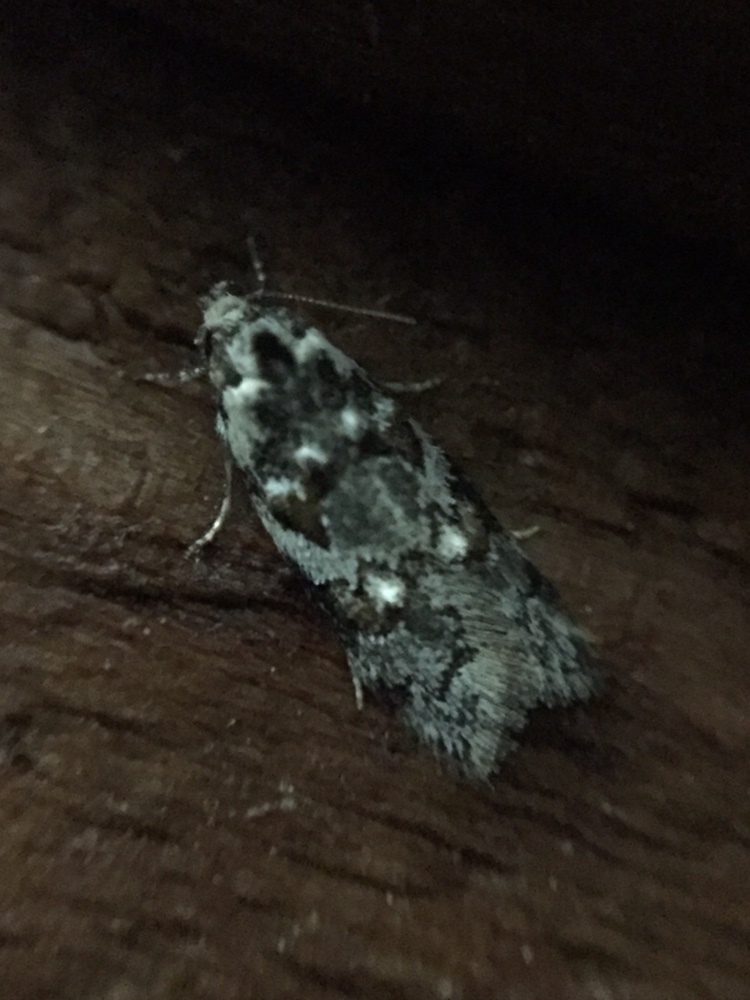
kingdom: Animalia
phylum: Arthropoda
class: Insecta
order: Lepidoptera
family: Oecophoridae
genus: Trachypepla
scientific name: Trachypepla galaxias
